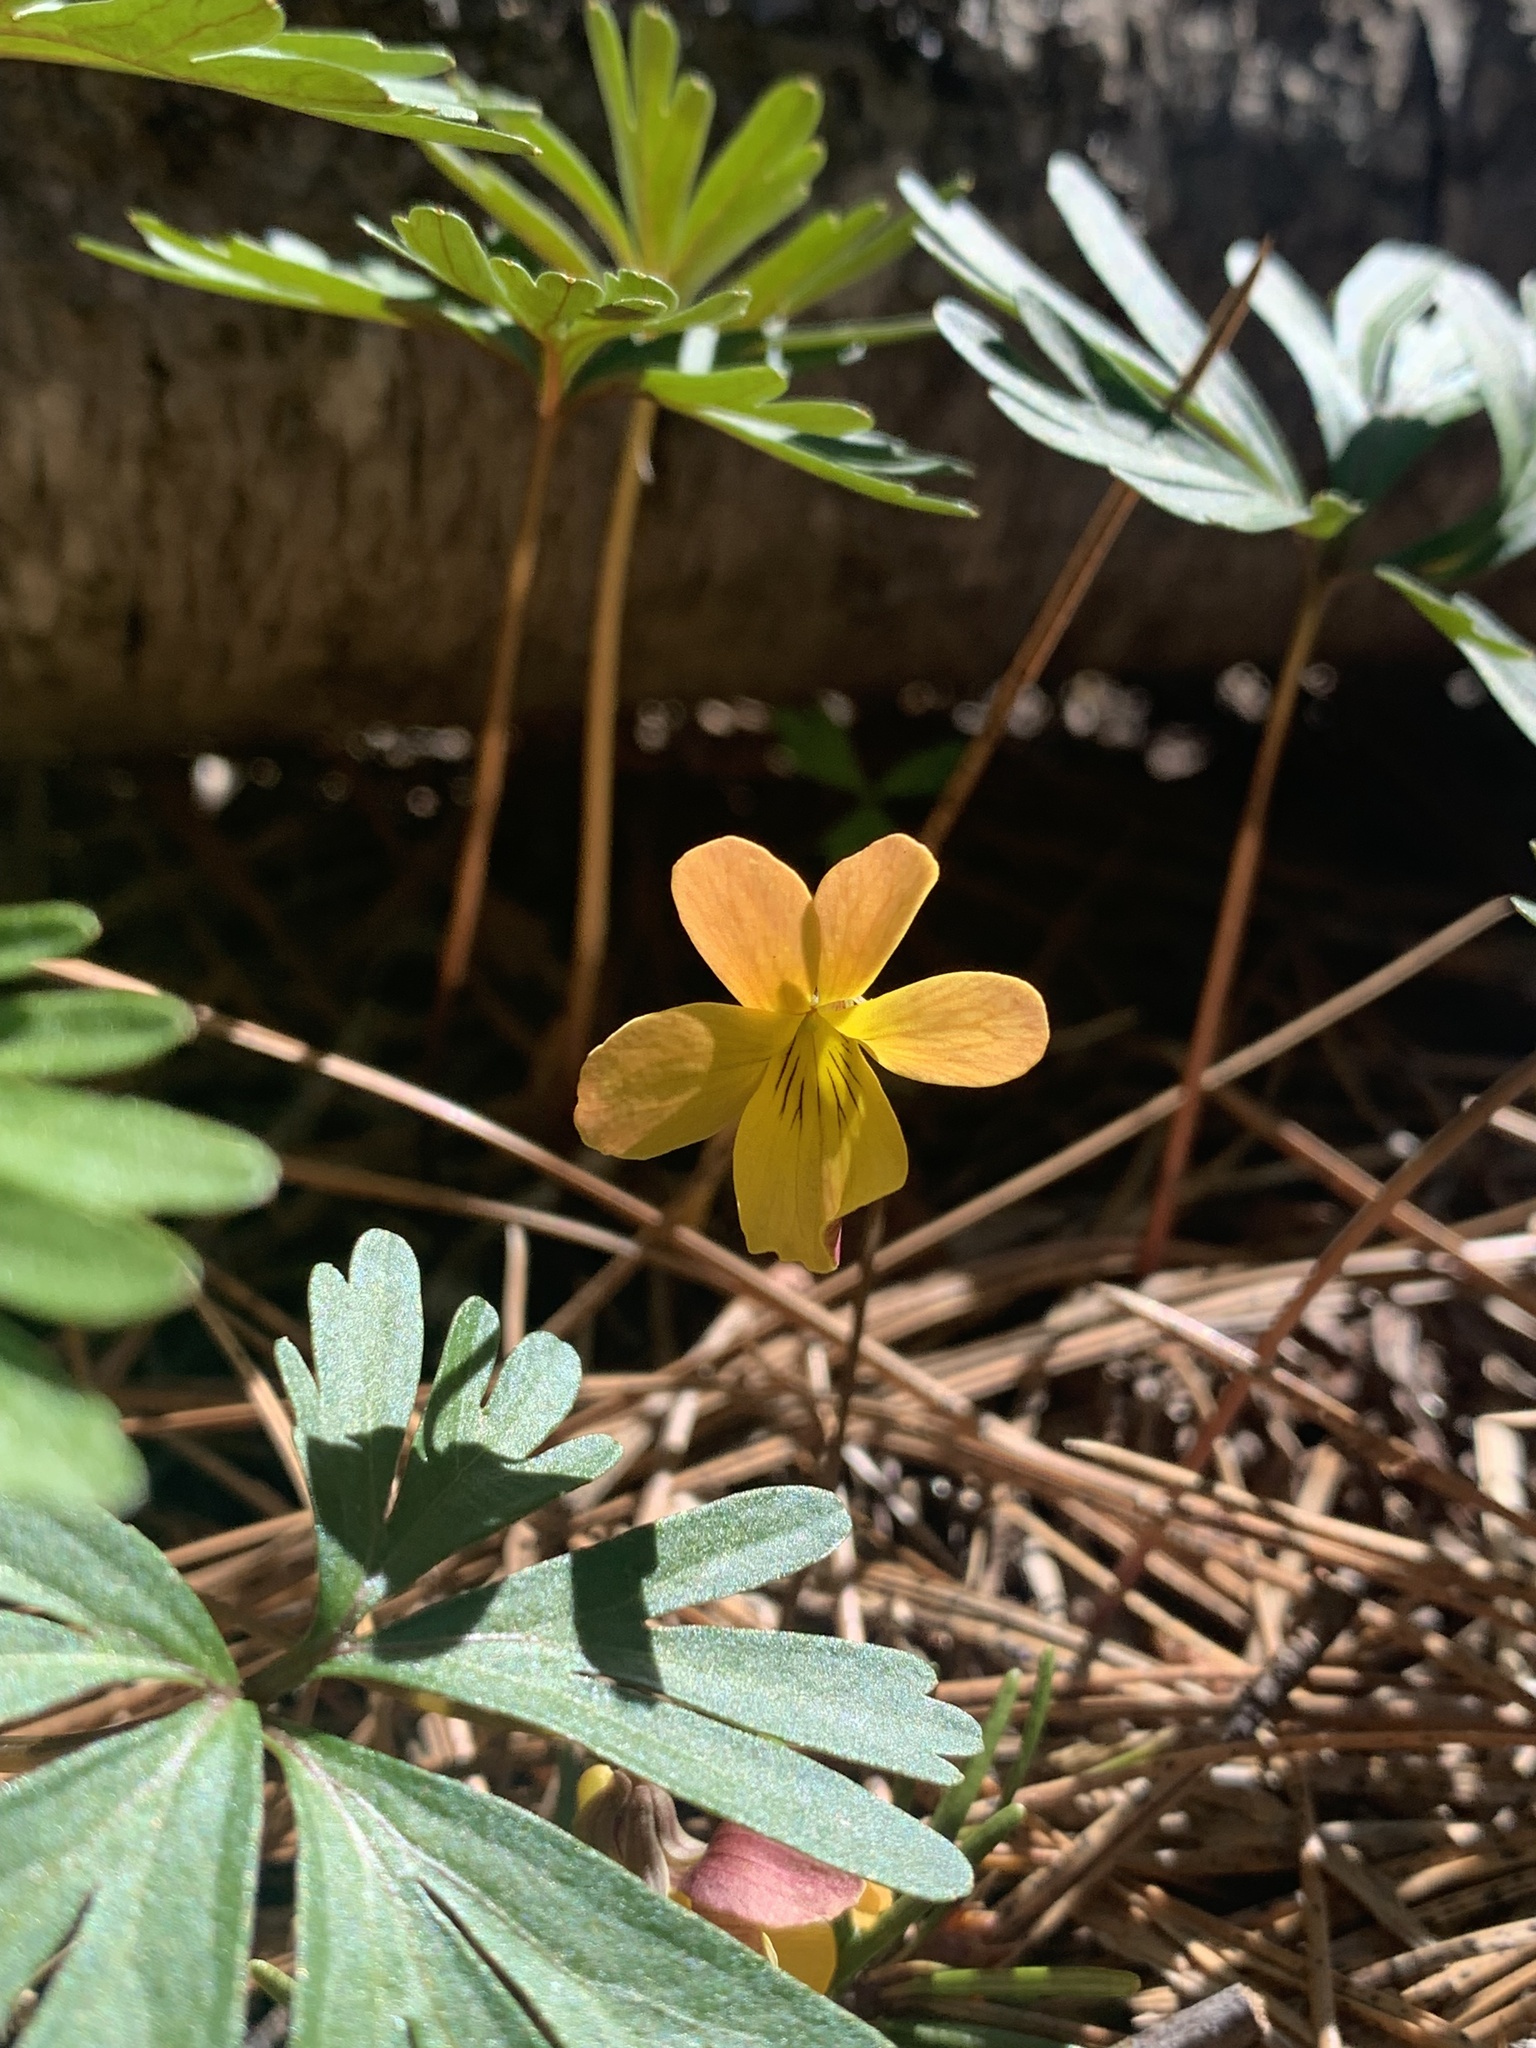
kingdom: Plantae
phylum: Tracheophyta
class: Magnoliopsida
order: Malpighiales
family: Violaceae
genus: Viola
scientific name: Viola sheltonii
